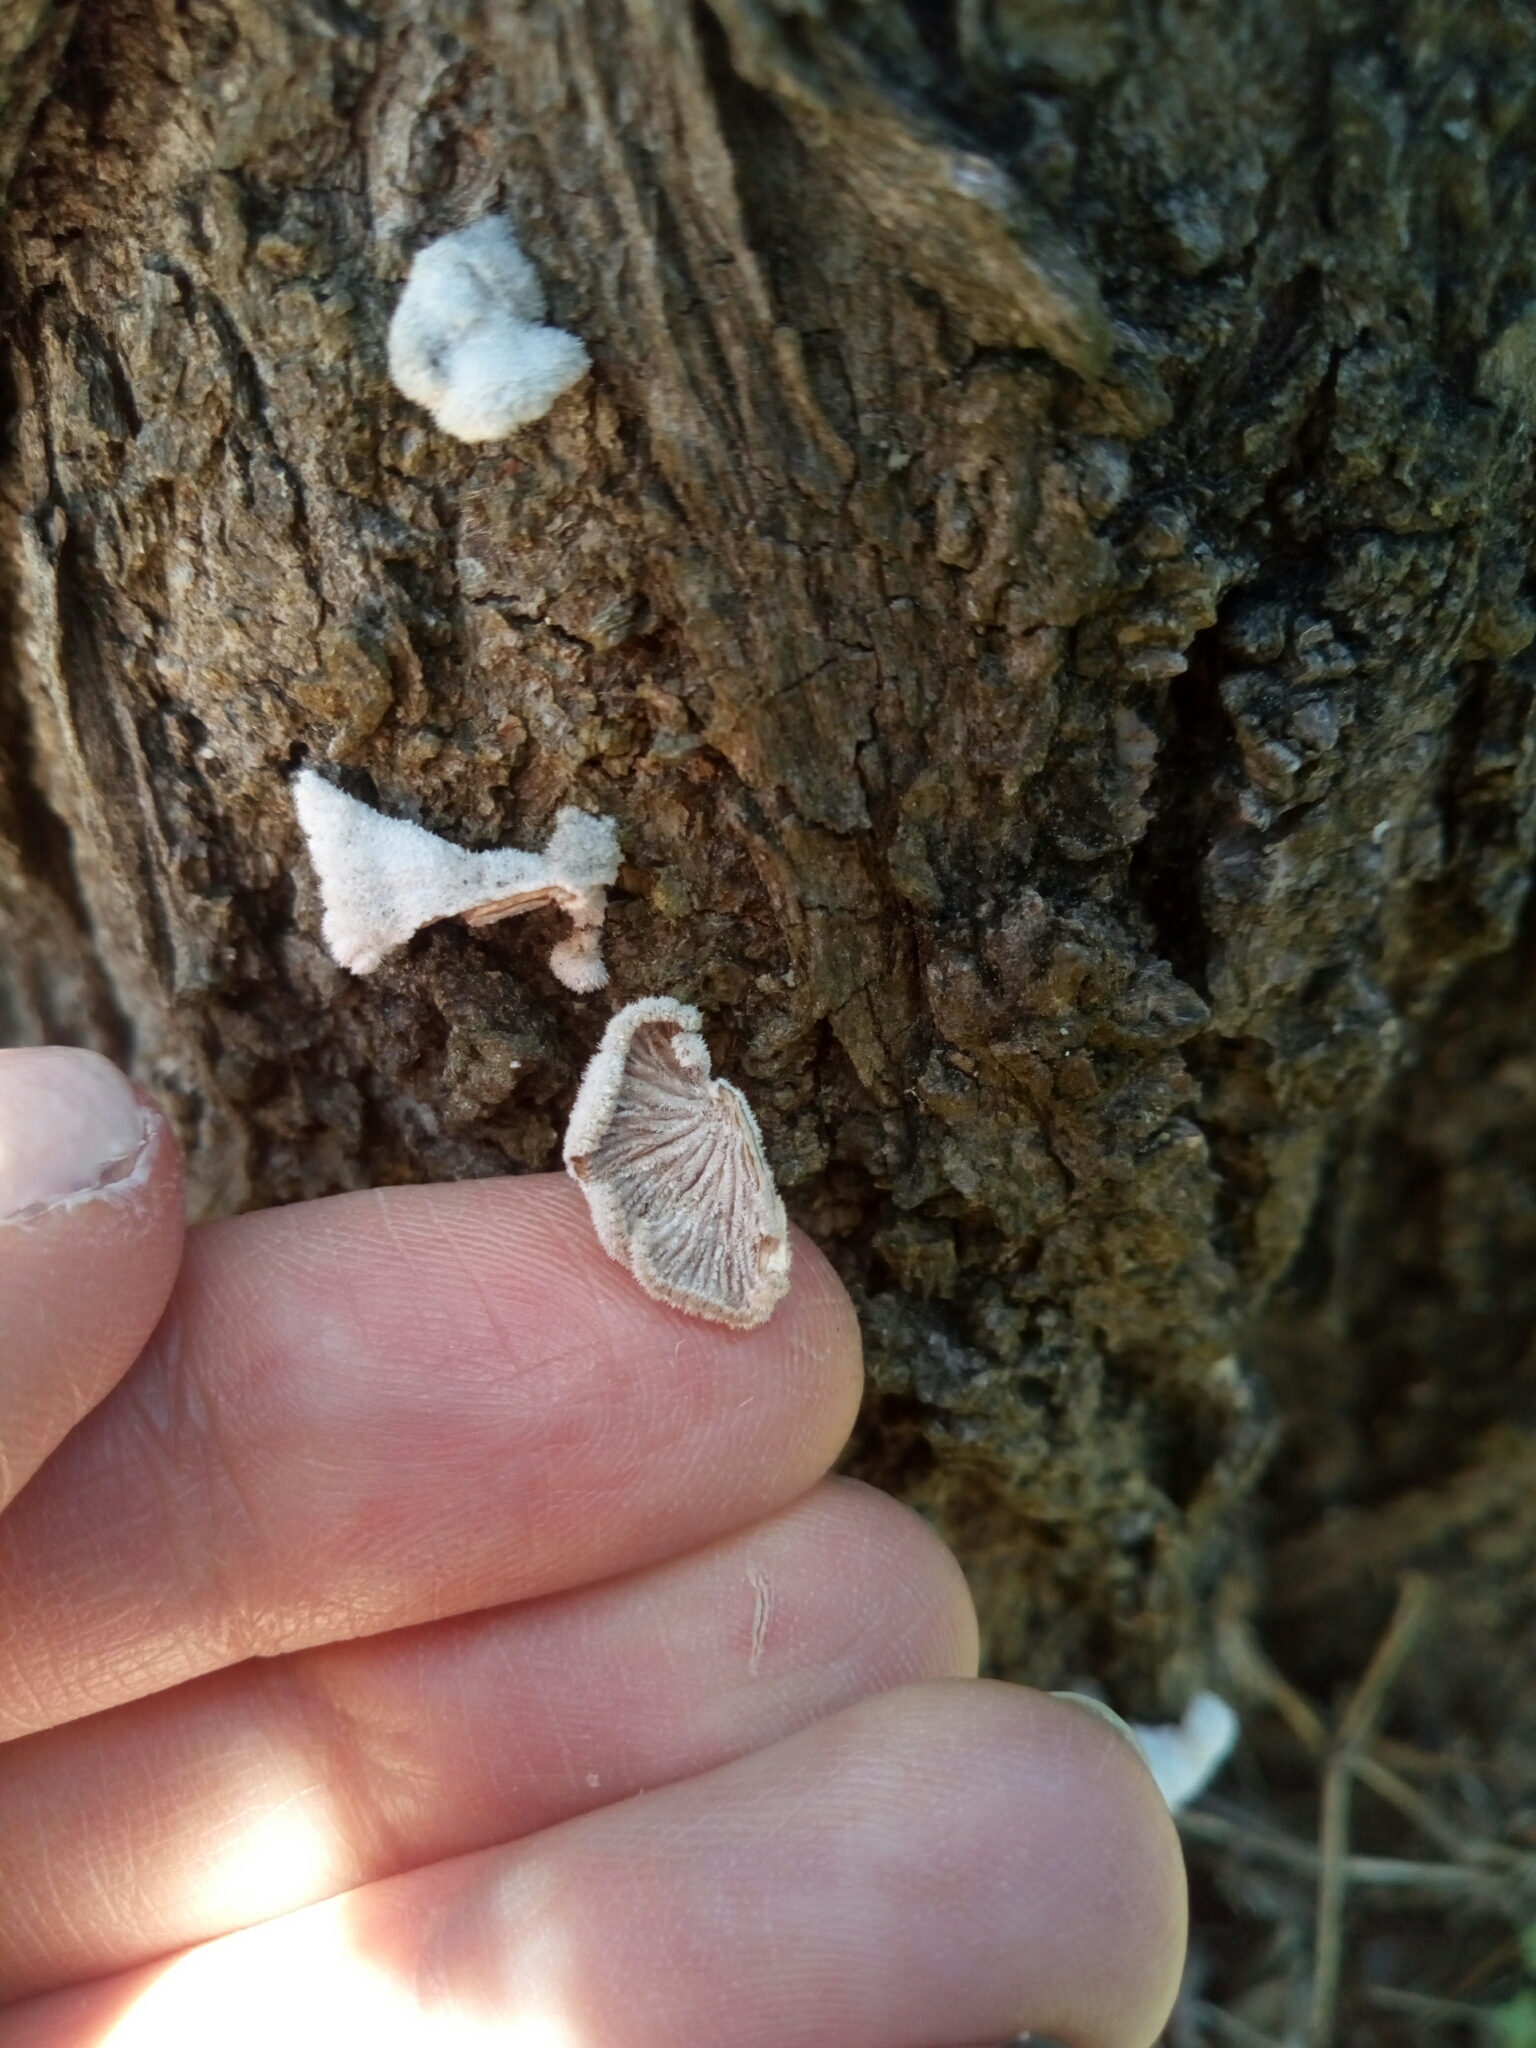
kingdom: Fungi
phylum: Basidiomycota
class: Agaricomycetes
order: Agaricales
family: Schizophyllaceae
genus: Schizophyllum
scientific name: Schizophyllum commune
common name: Common porecrust
